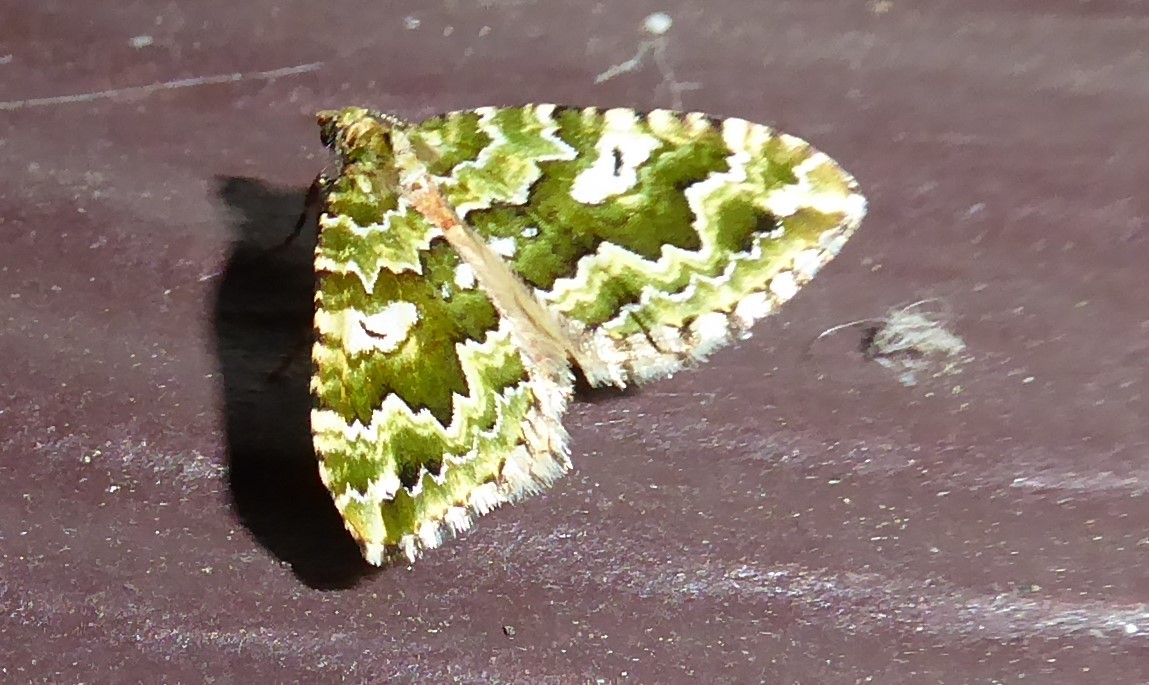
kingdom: Animalia
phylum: Arthropoda
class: Insecta
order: Lepidoptera
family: Geometridae
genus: Asaphodes
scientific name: Asaphodes beata
